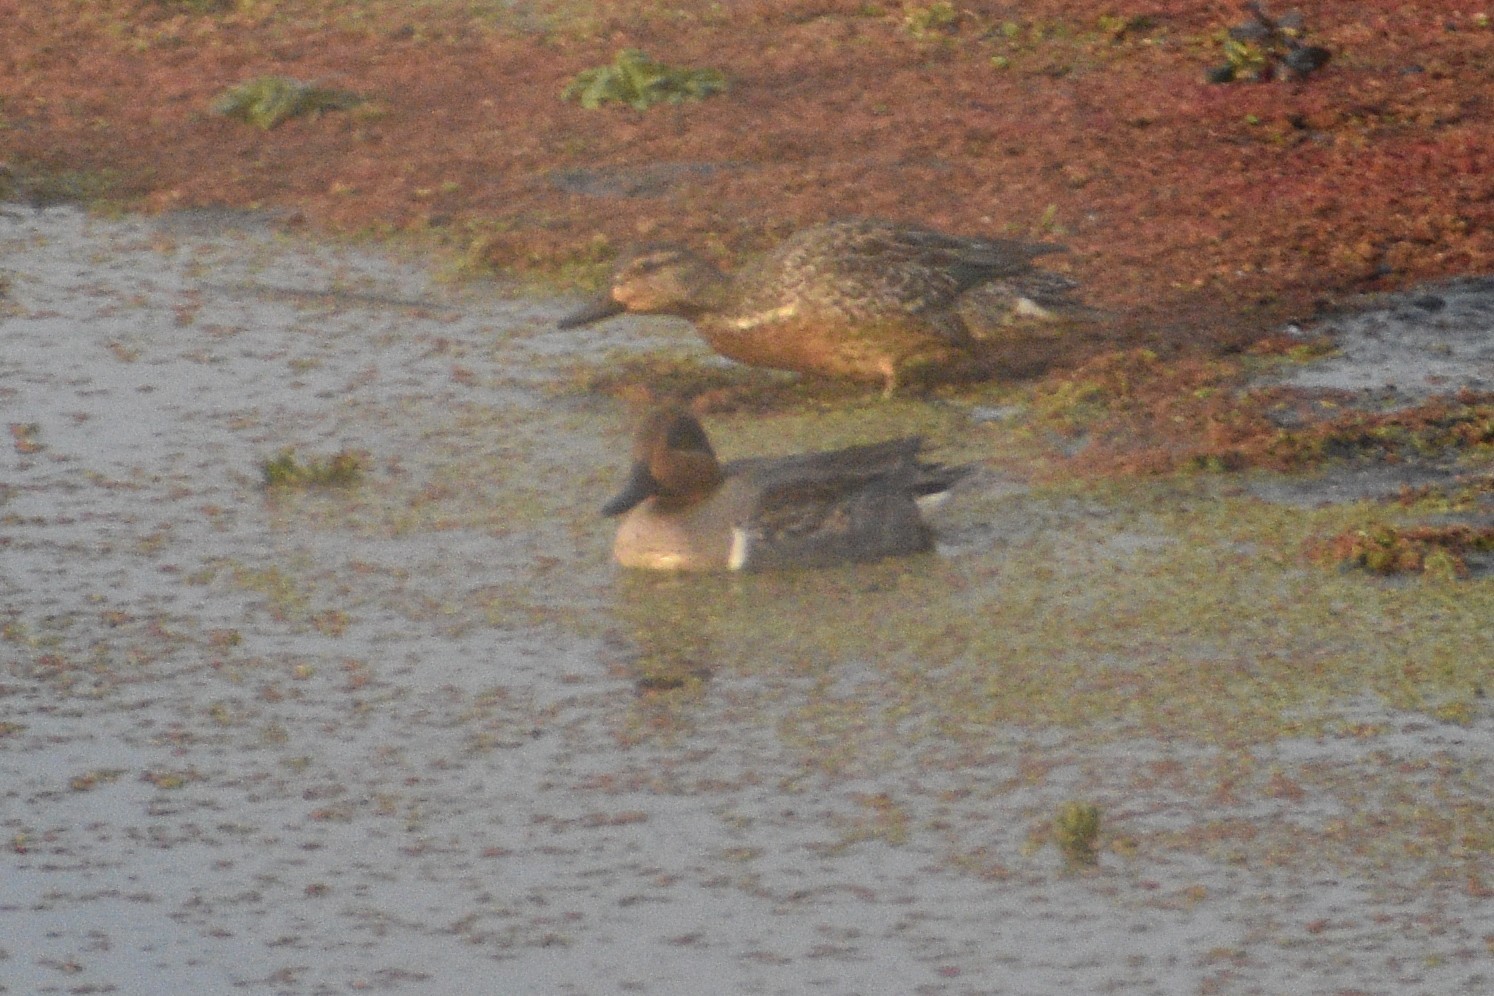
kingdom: Animalia
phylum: Chordata
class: Aves
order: Anseriformes
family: Anatidae
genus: Anas
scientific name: Anas crecca
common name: Eurasian teal
